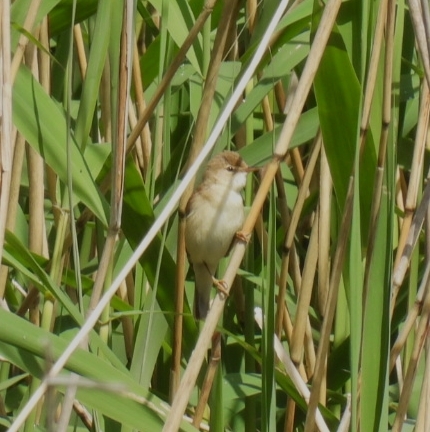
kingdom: Animalia
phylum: Chordata
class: Aves
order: Passeriformes
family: Acrocephalidae
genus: Acrocephalus
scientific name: Acrocephalus scirpaceus
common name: Eurasian reed warbler
